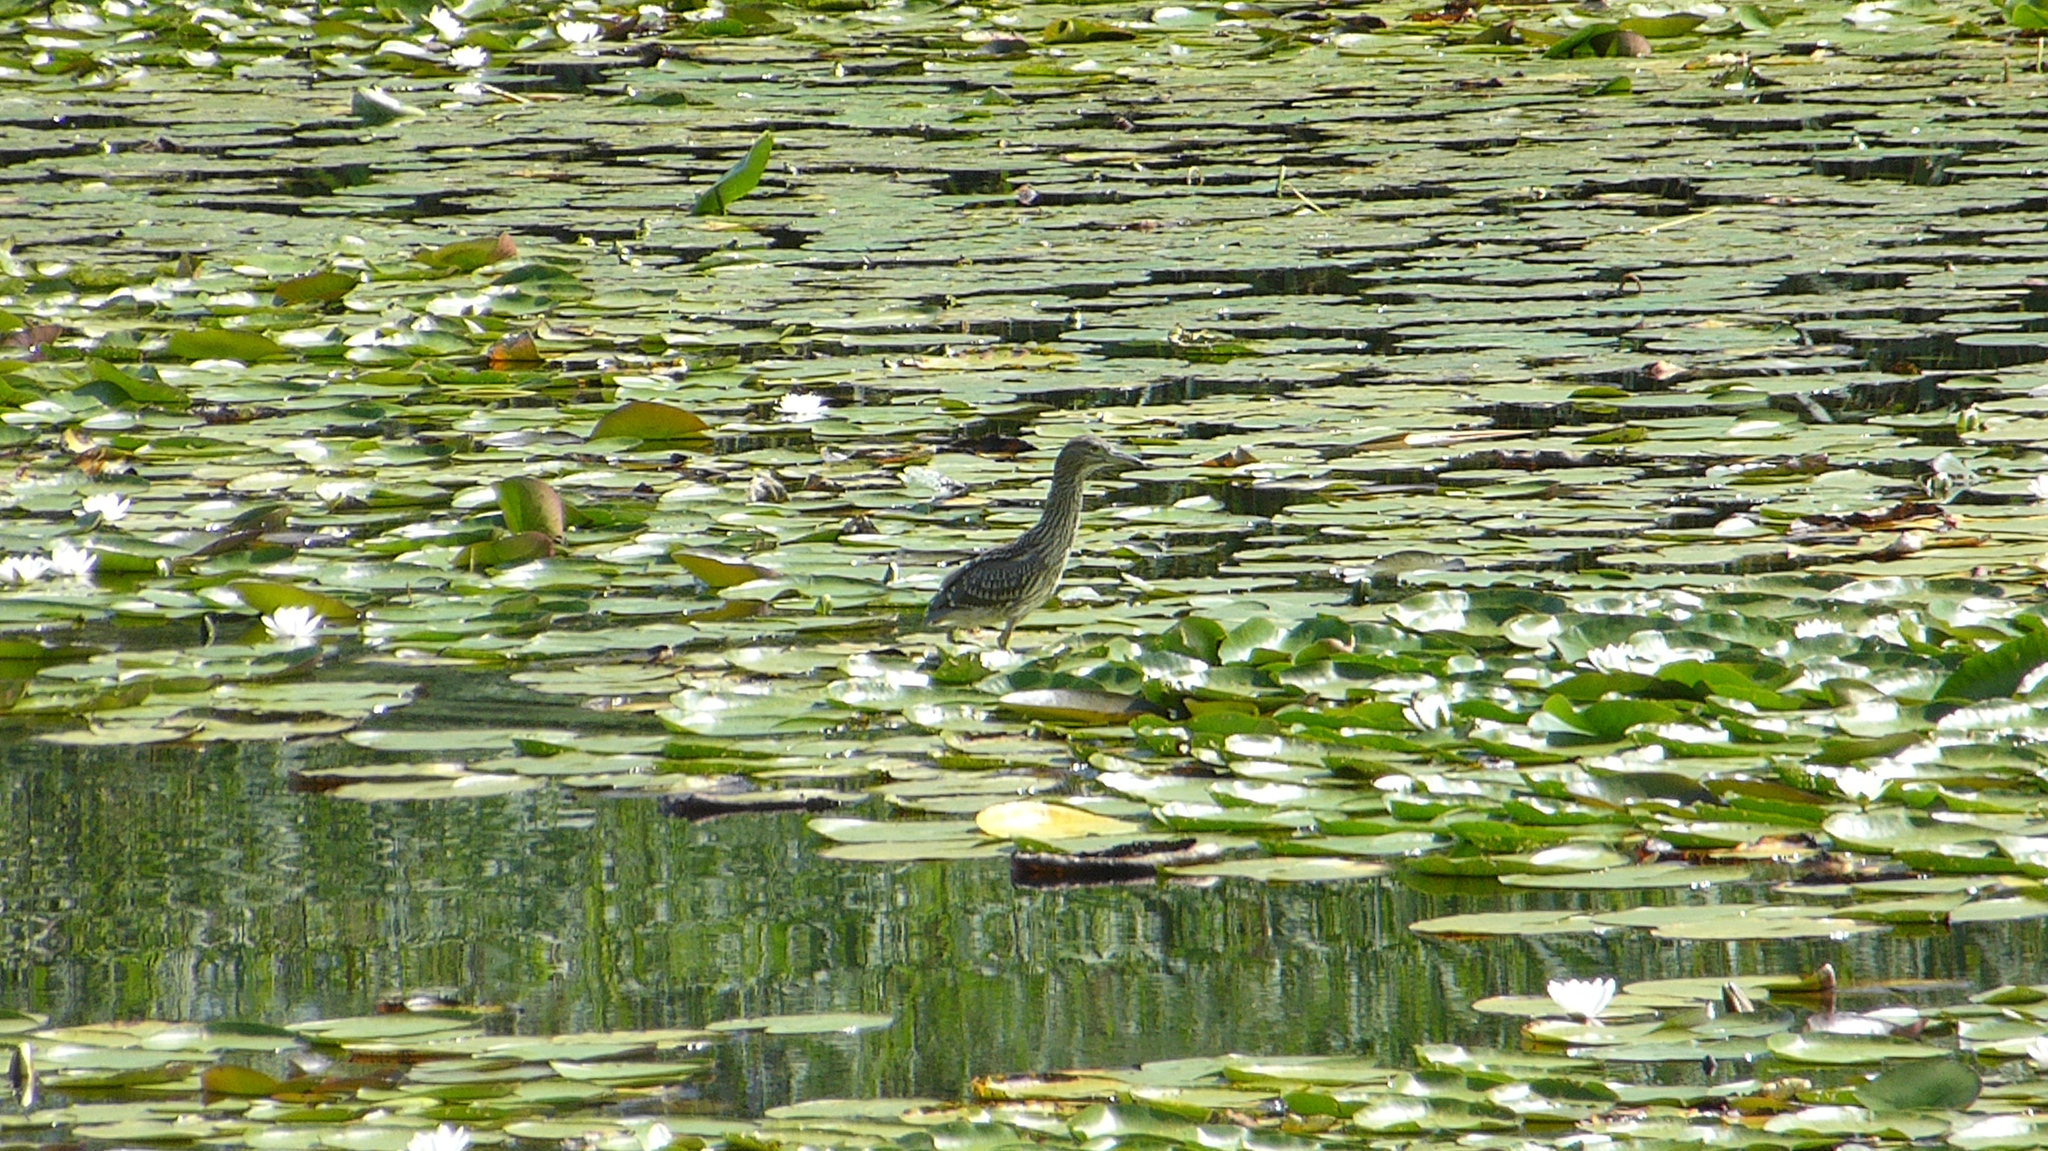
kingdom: Animalia
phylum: Chordata
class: Aves
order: Pelecaniformes
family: Ardeidae
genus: Nycticorax
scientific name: Nycticorax nycticorax
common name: Black-crowned night heron
